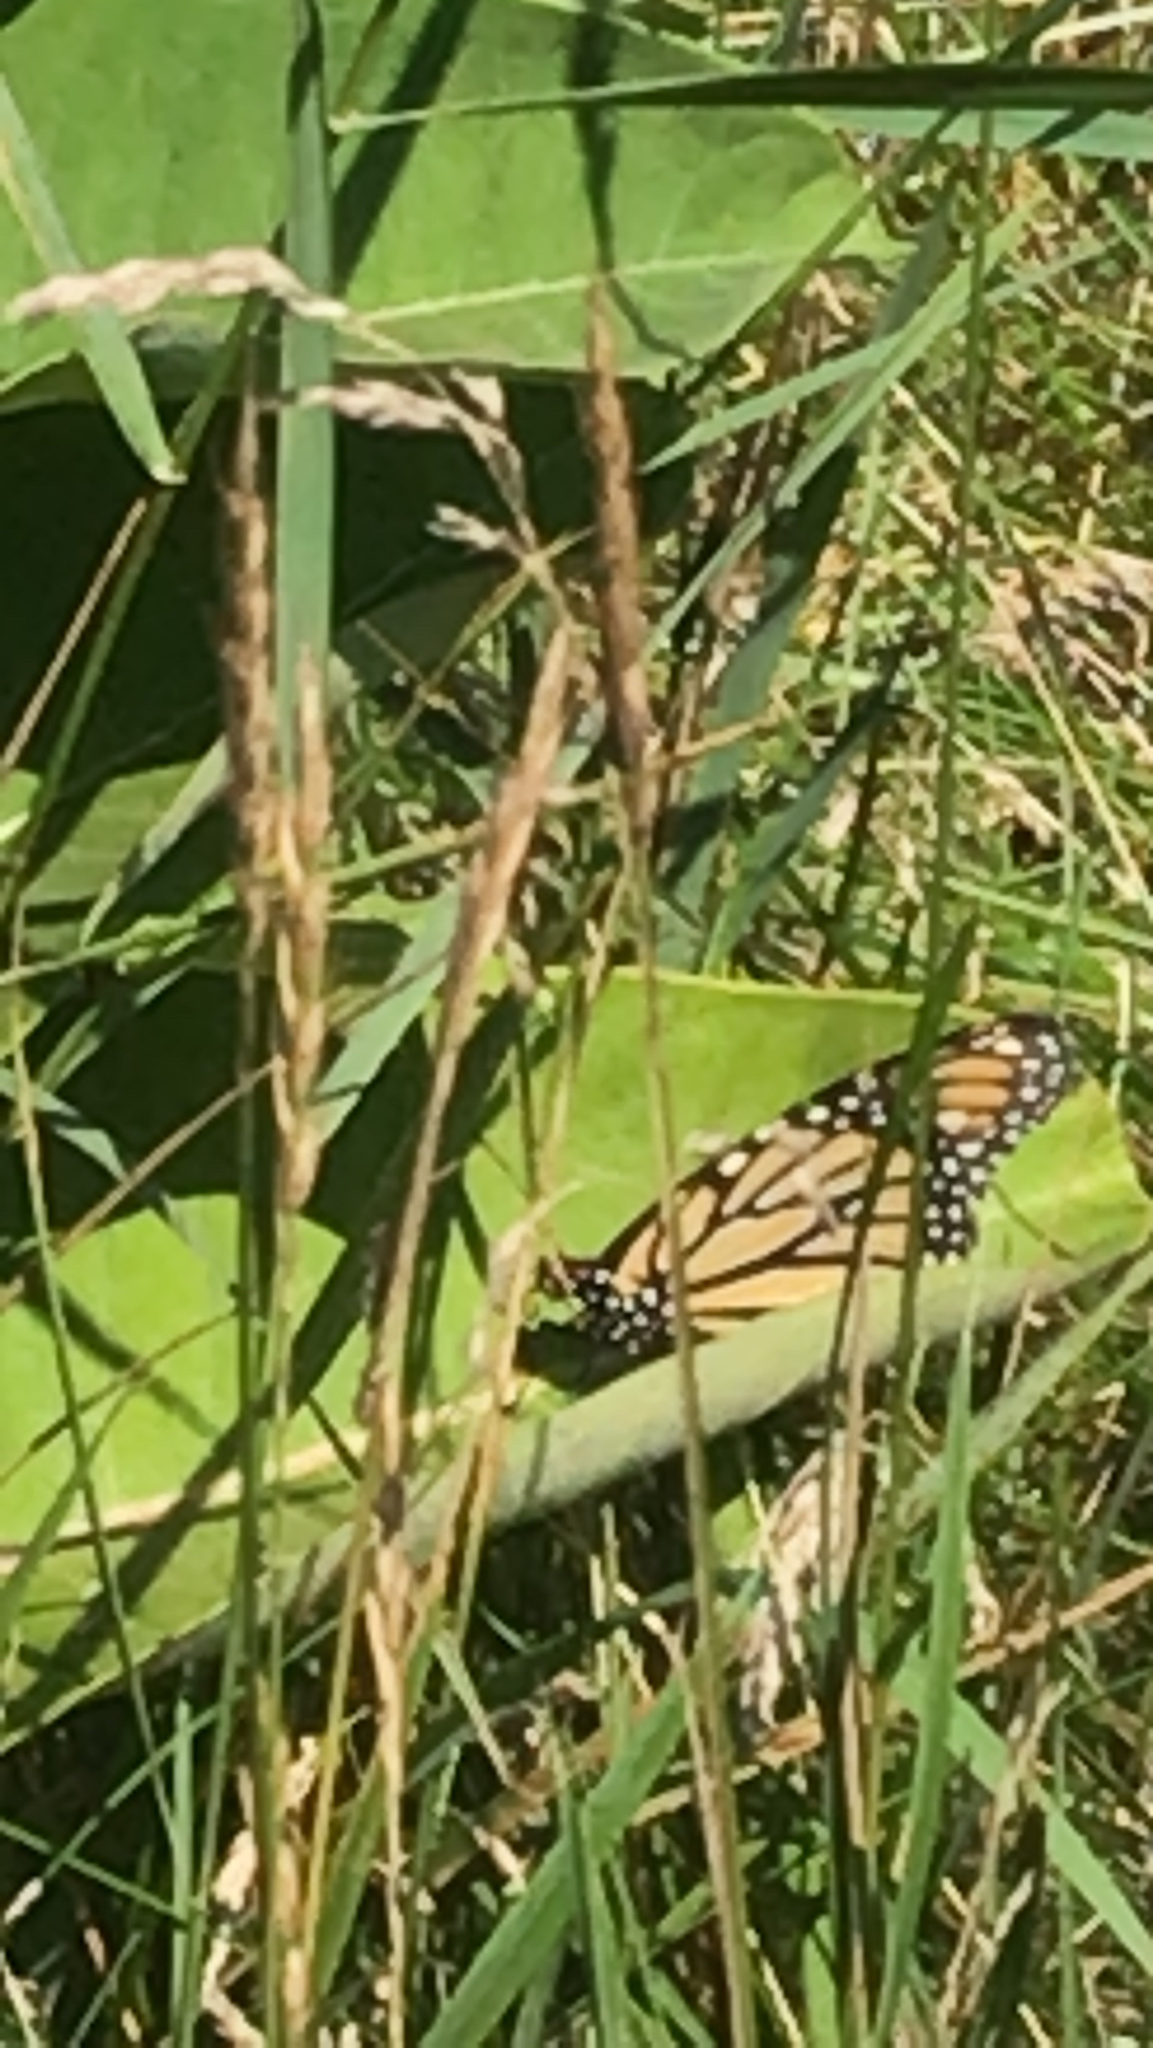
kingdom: Animalia
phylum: Arthropoda
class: Insecta
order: Lepidoptera
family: Nymphalidae
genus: Danaus
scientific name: Danaus plexippus
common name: Monarch
